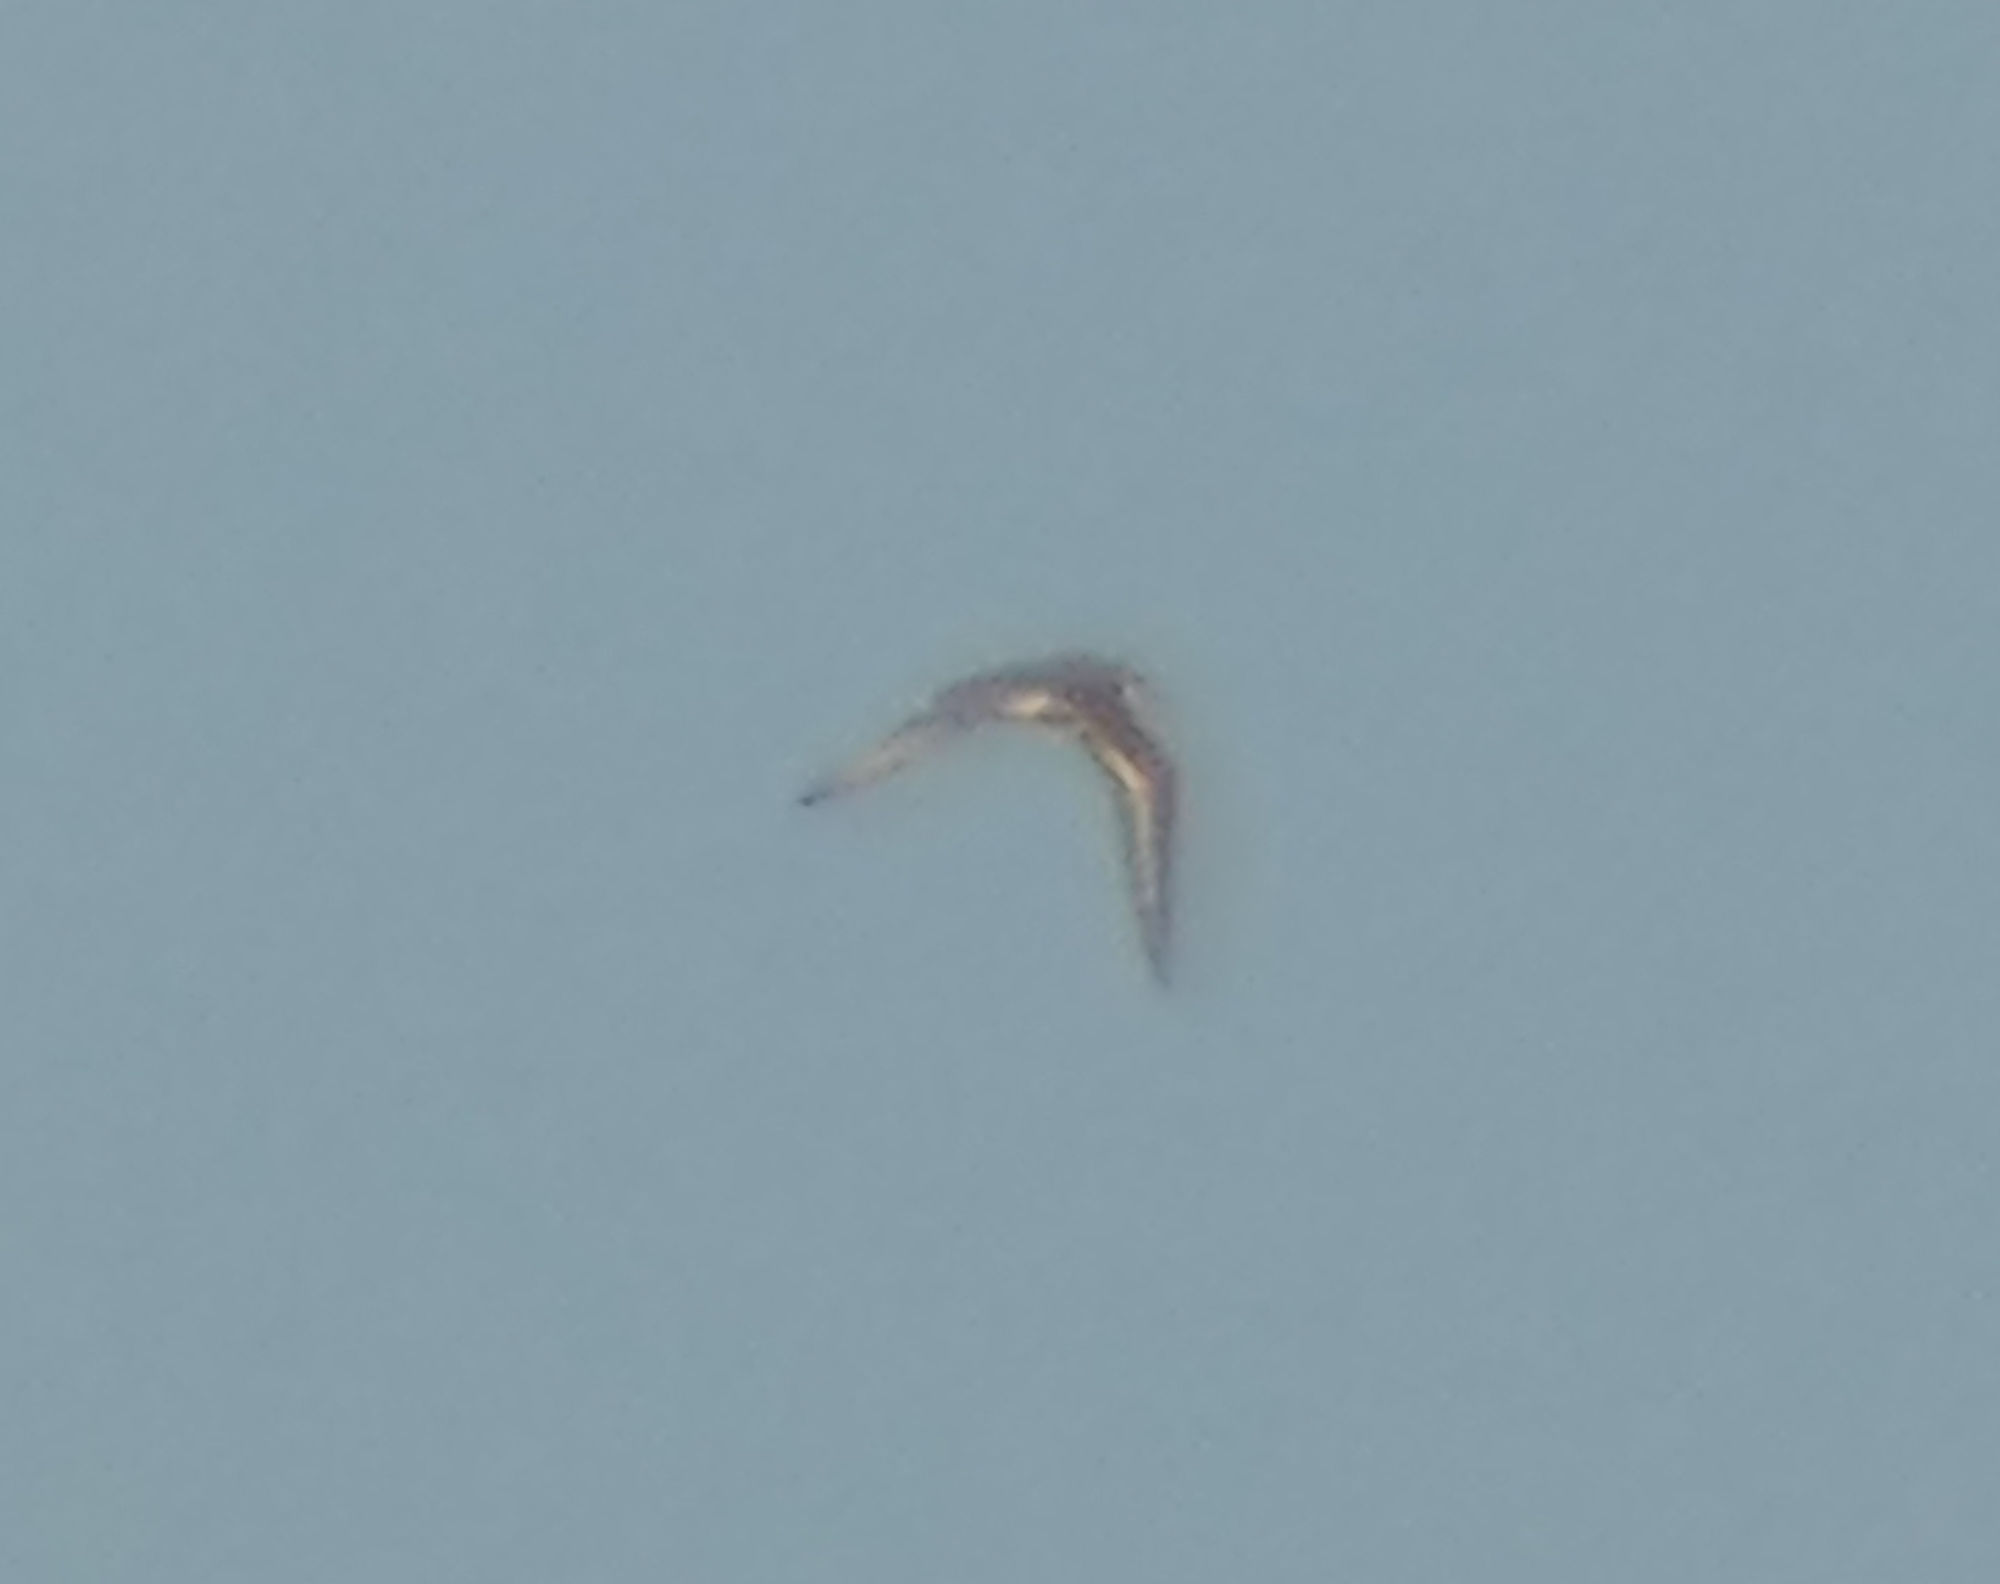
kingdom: Animalia
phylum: Chordata
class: Aves
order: Charadriiformes
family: Charadriidae
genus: Charadrius
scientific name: Charadrius vociferus
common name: Killdeer
